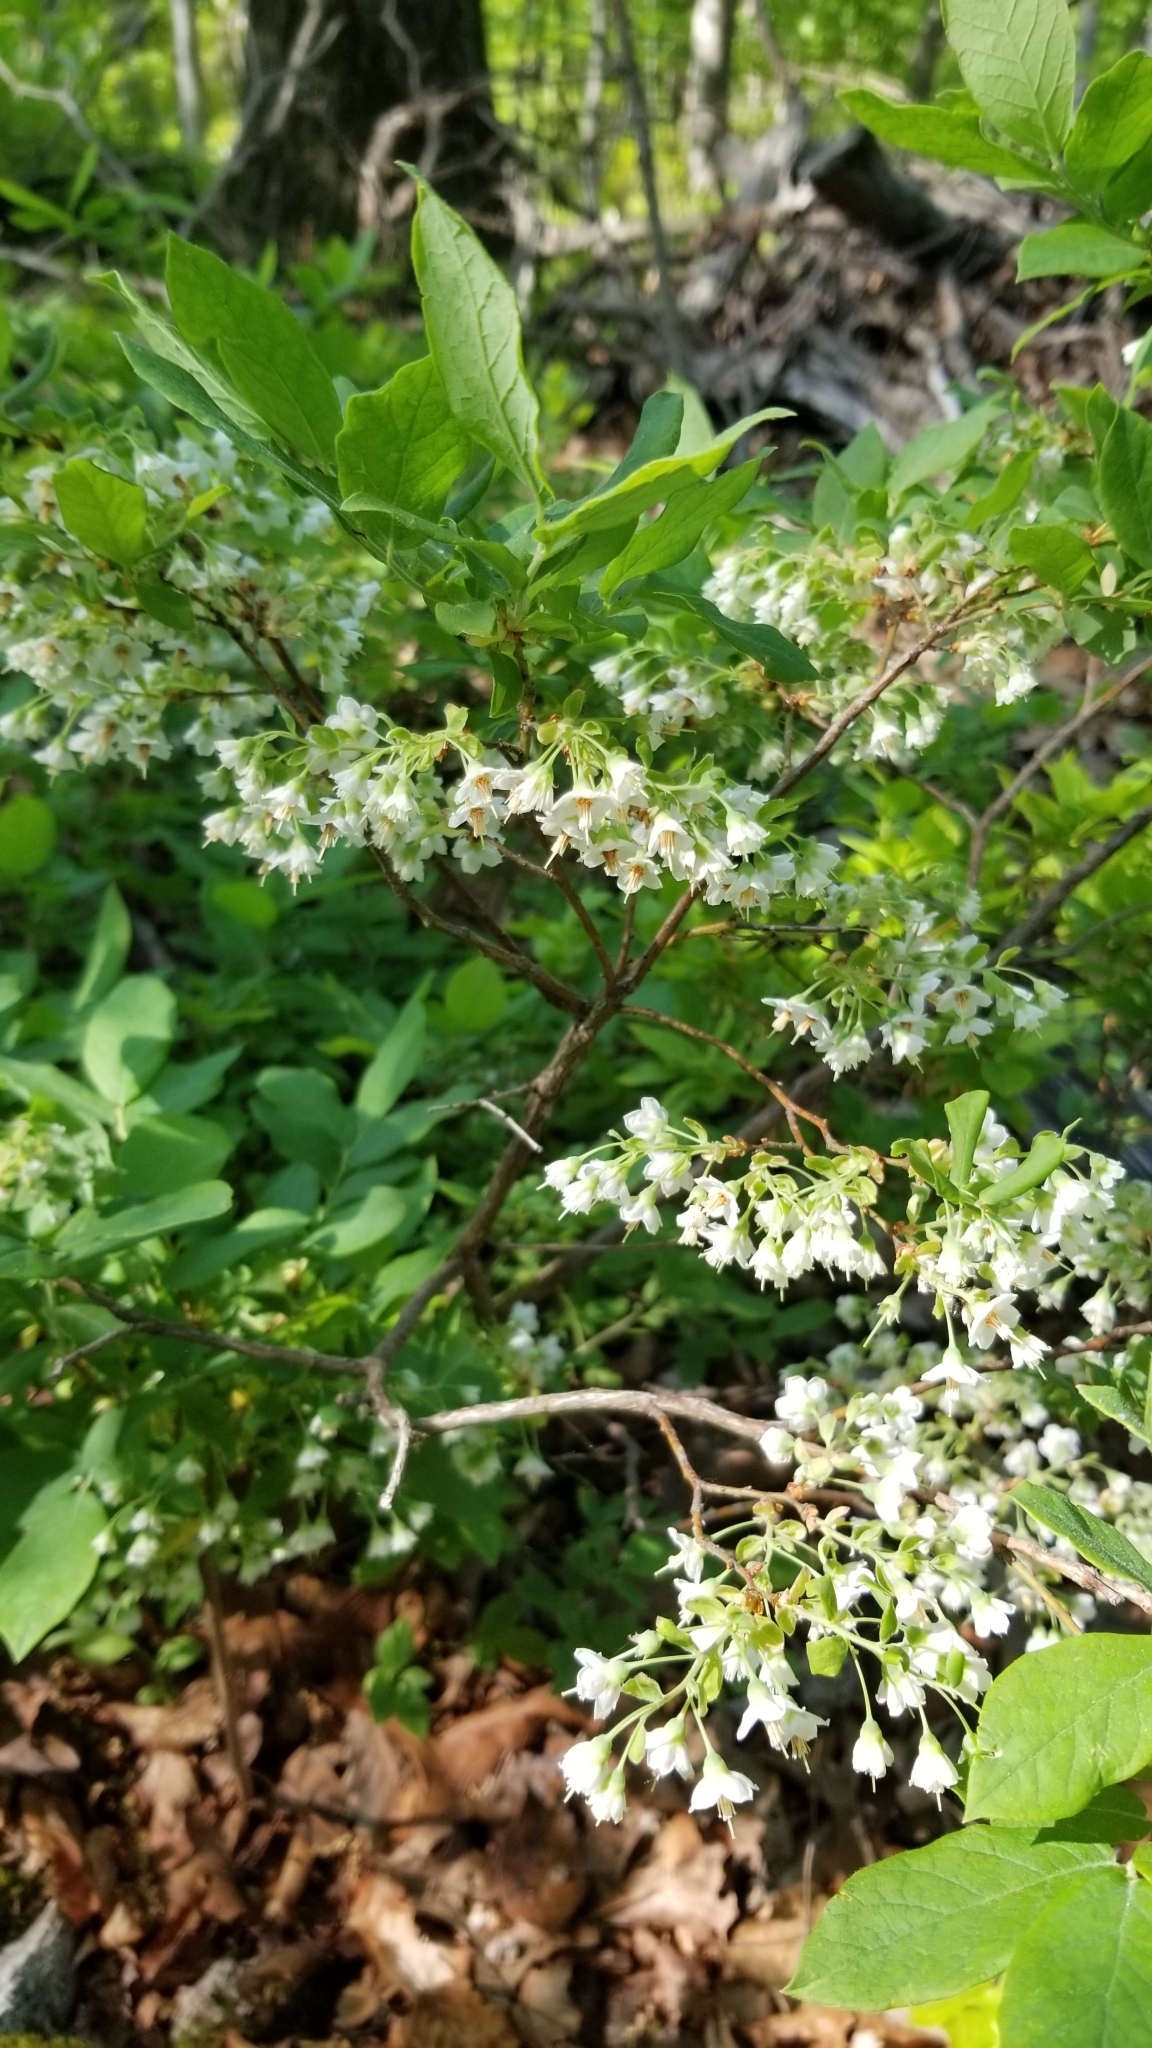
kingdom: Plantae
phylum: Tracheophyta
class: Magnoliopsida
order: Ericales
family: Ericaceae
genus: Vaccinium
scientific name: Vaccinium stamineum
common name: Deerberry
